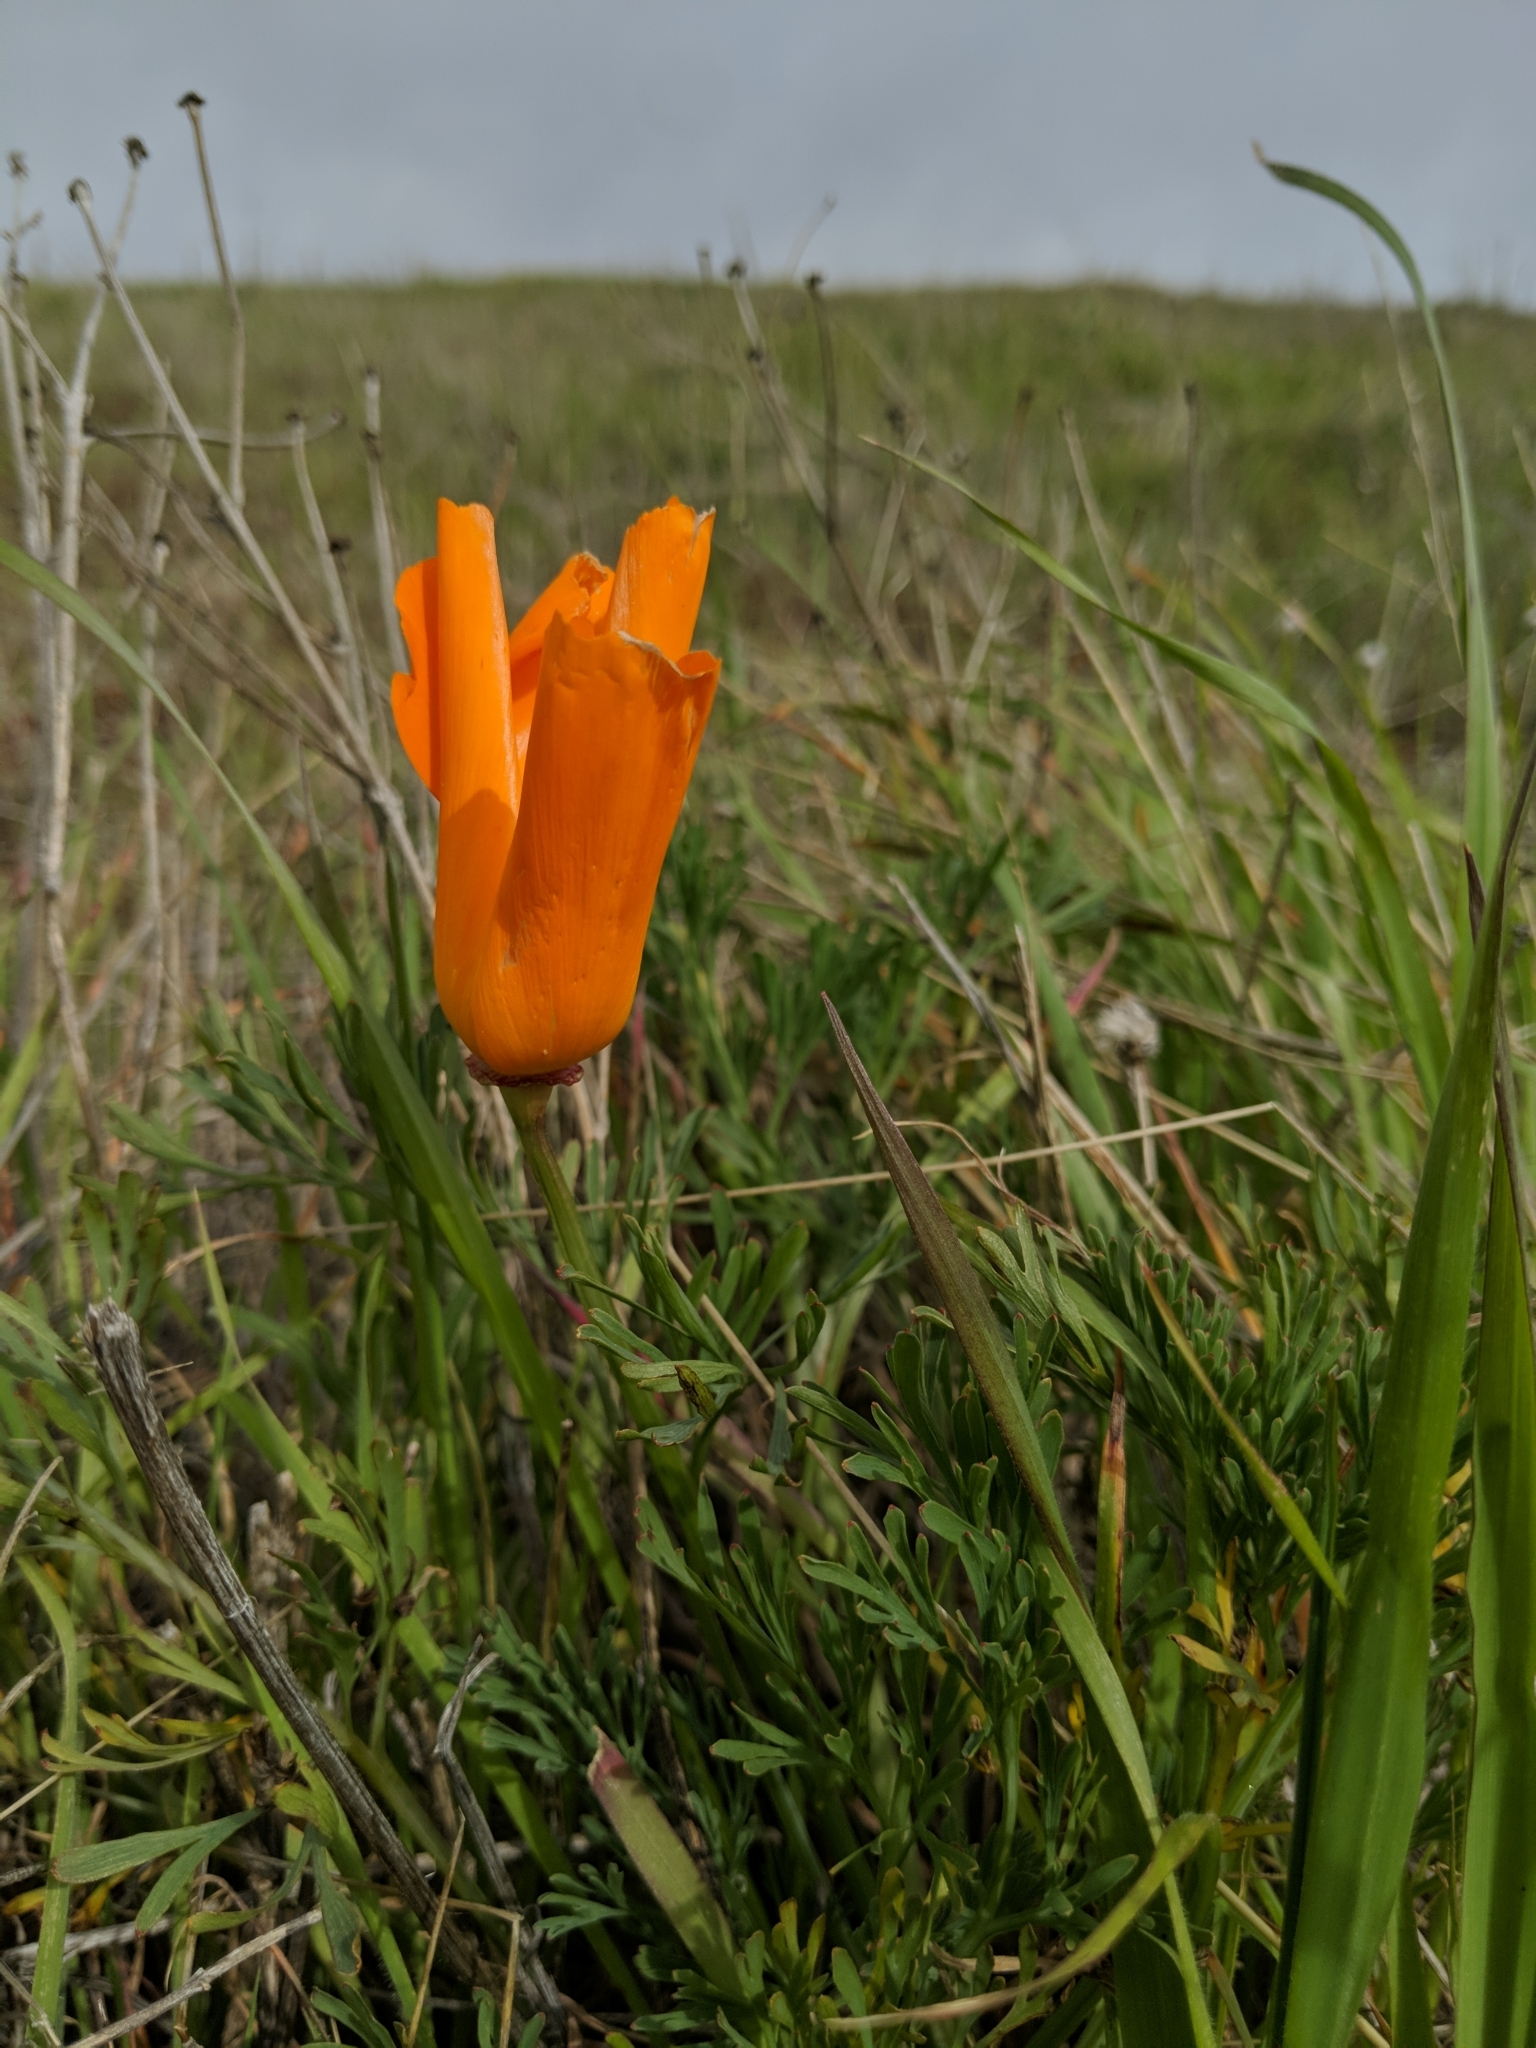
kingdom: Plantae
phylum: Tracheophyta
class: Magnoliopsida
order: Ranunculales
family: Papaveraceae
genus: Eschscholzia
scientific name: Eschscholzia californica
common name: California poppy
